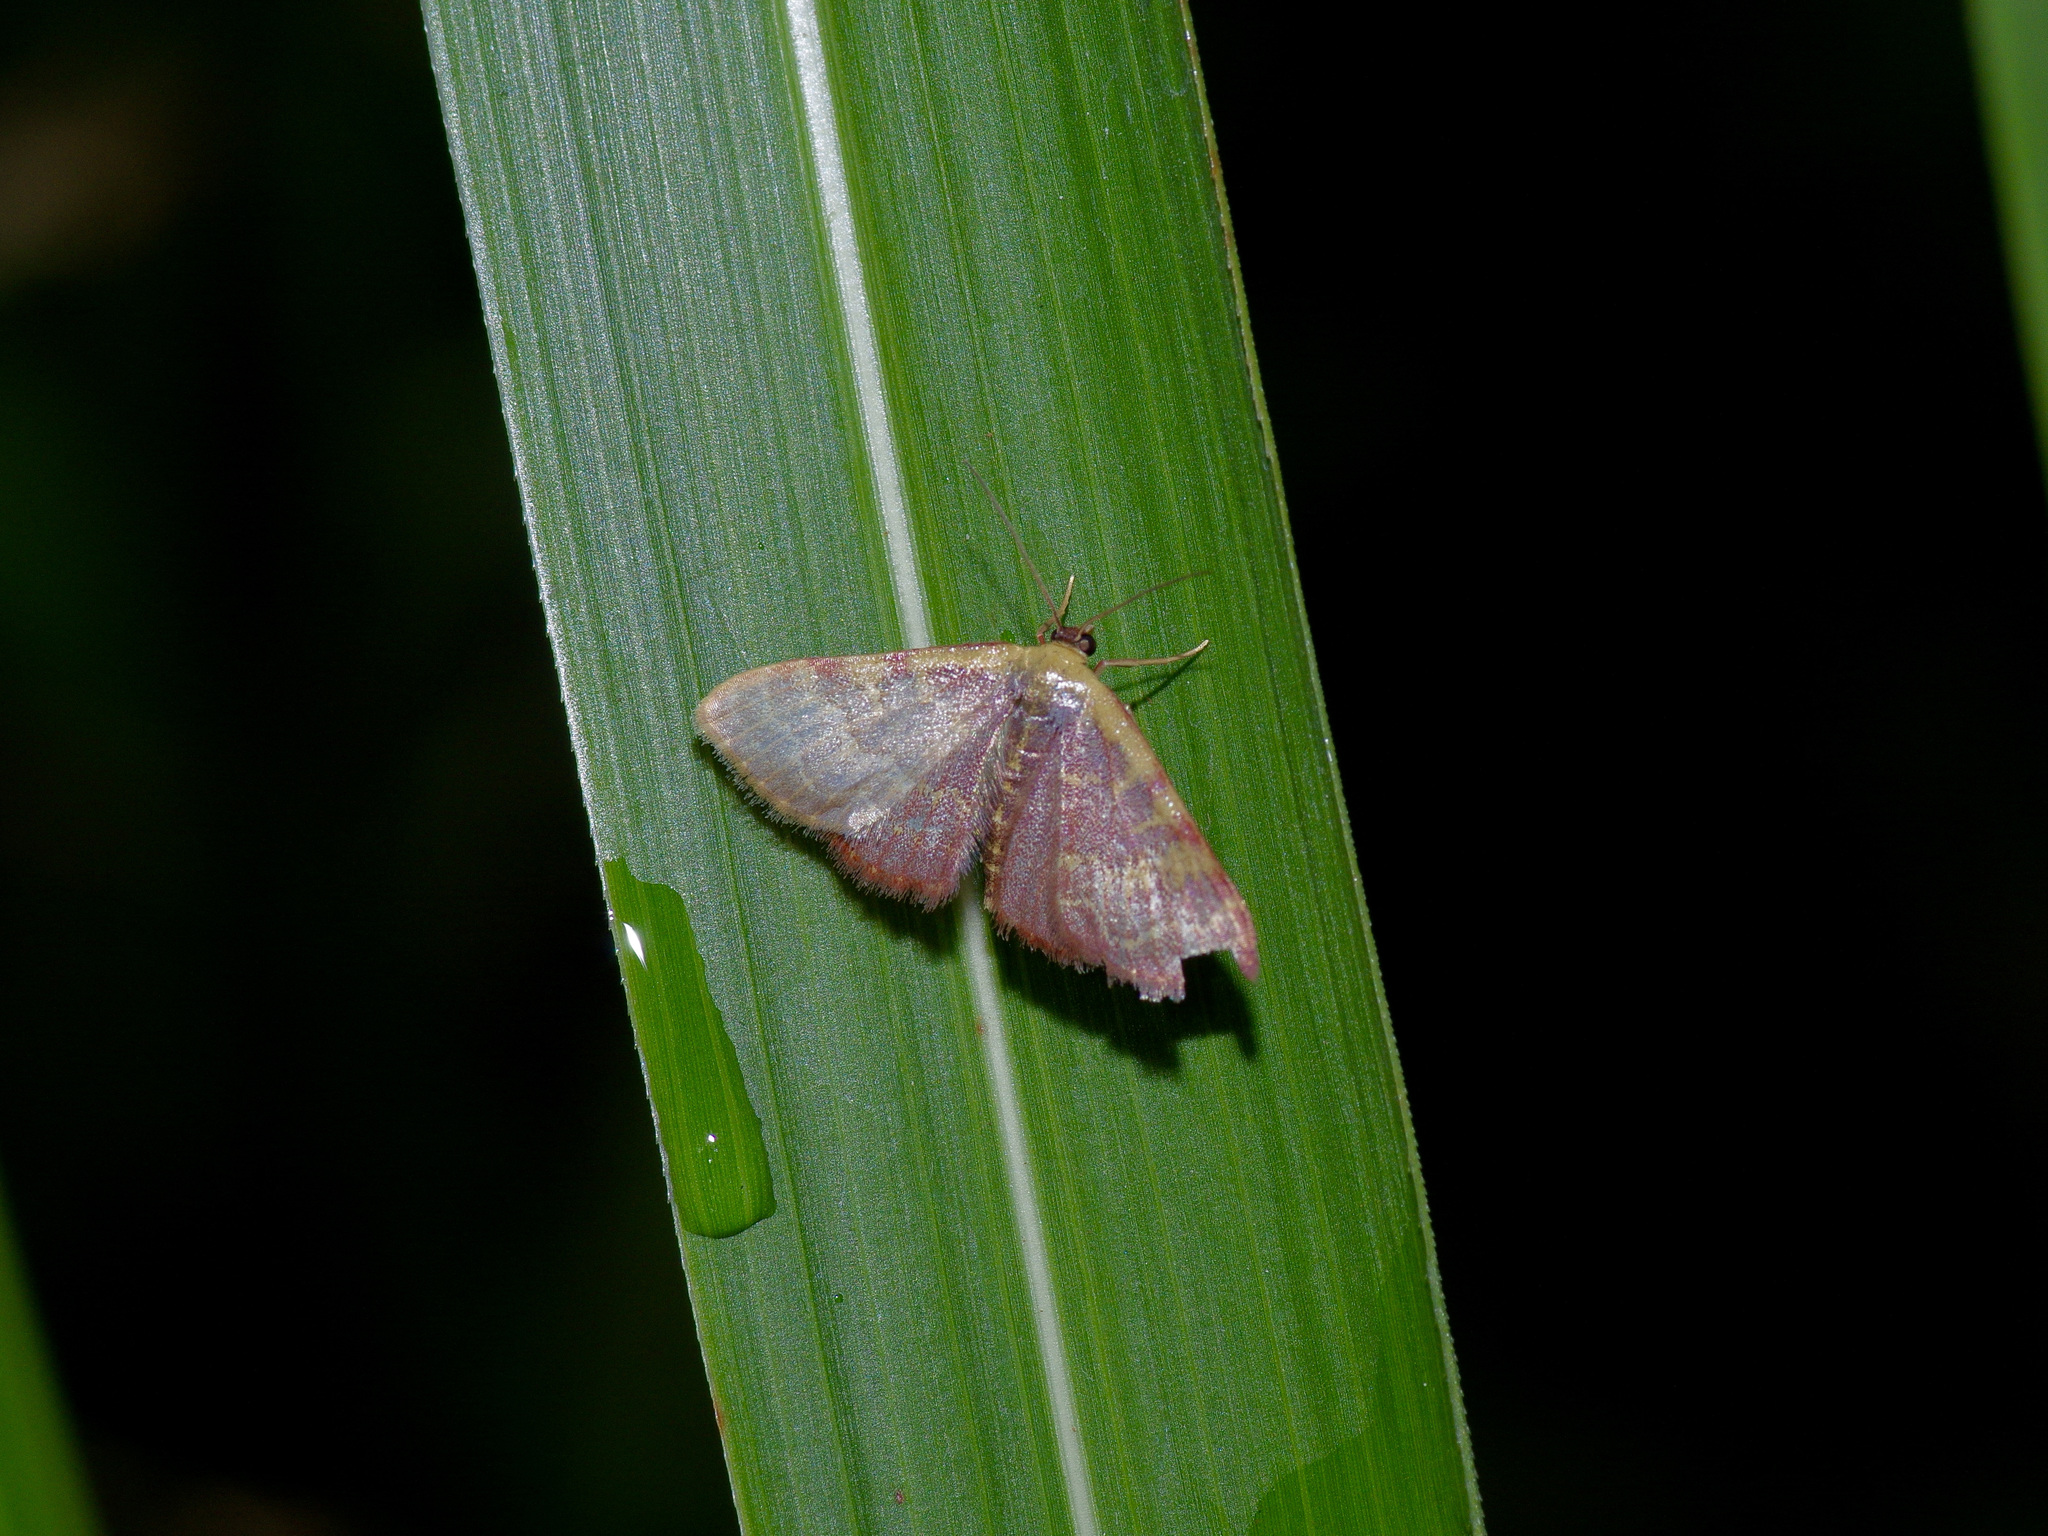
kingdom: Animalia
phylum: Arthropoda
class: Insecta
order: Lepidoptera
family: Geometridae
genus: Leptostales
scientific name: Leptostales pannaria
